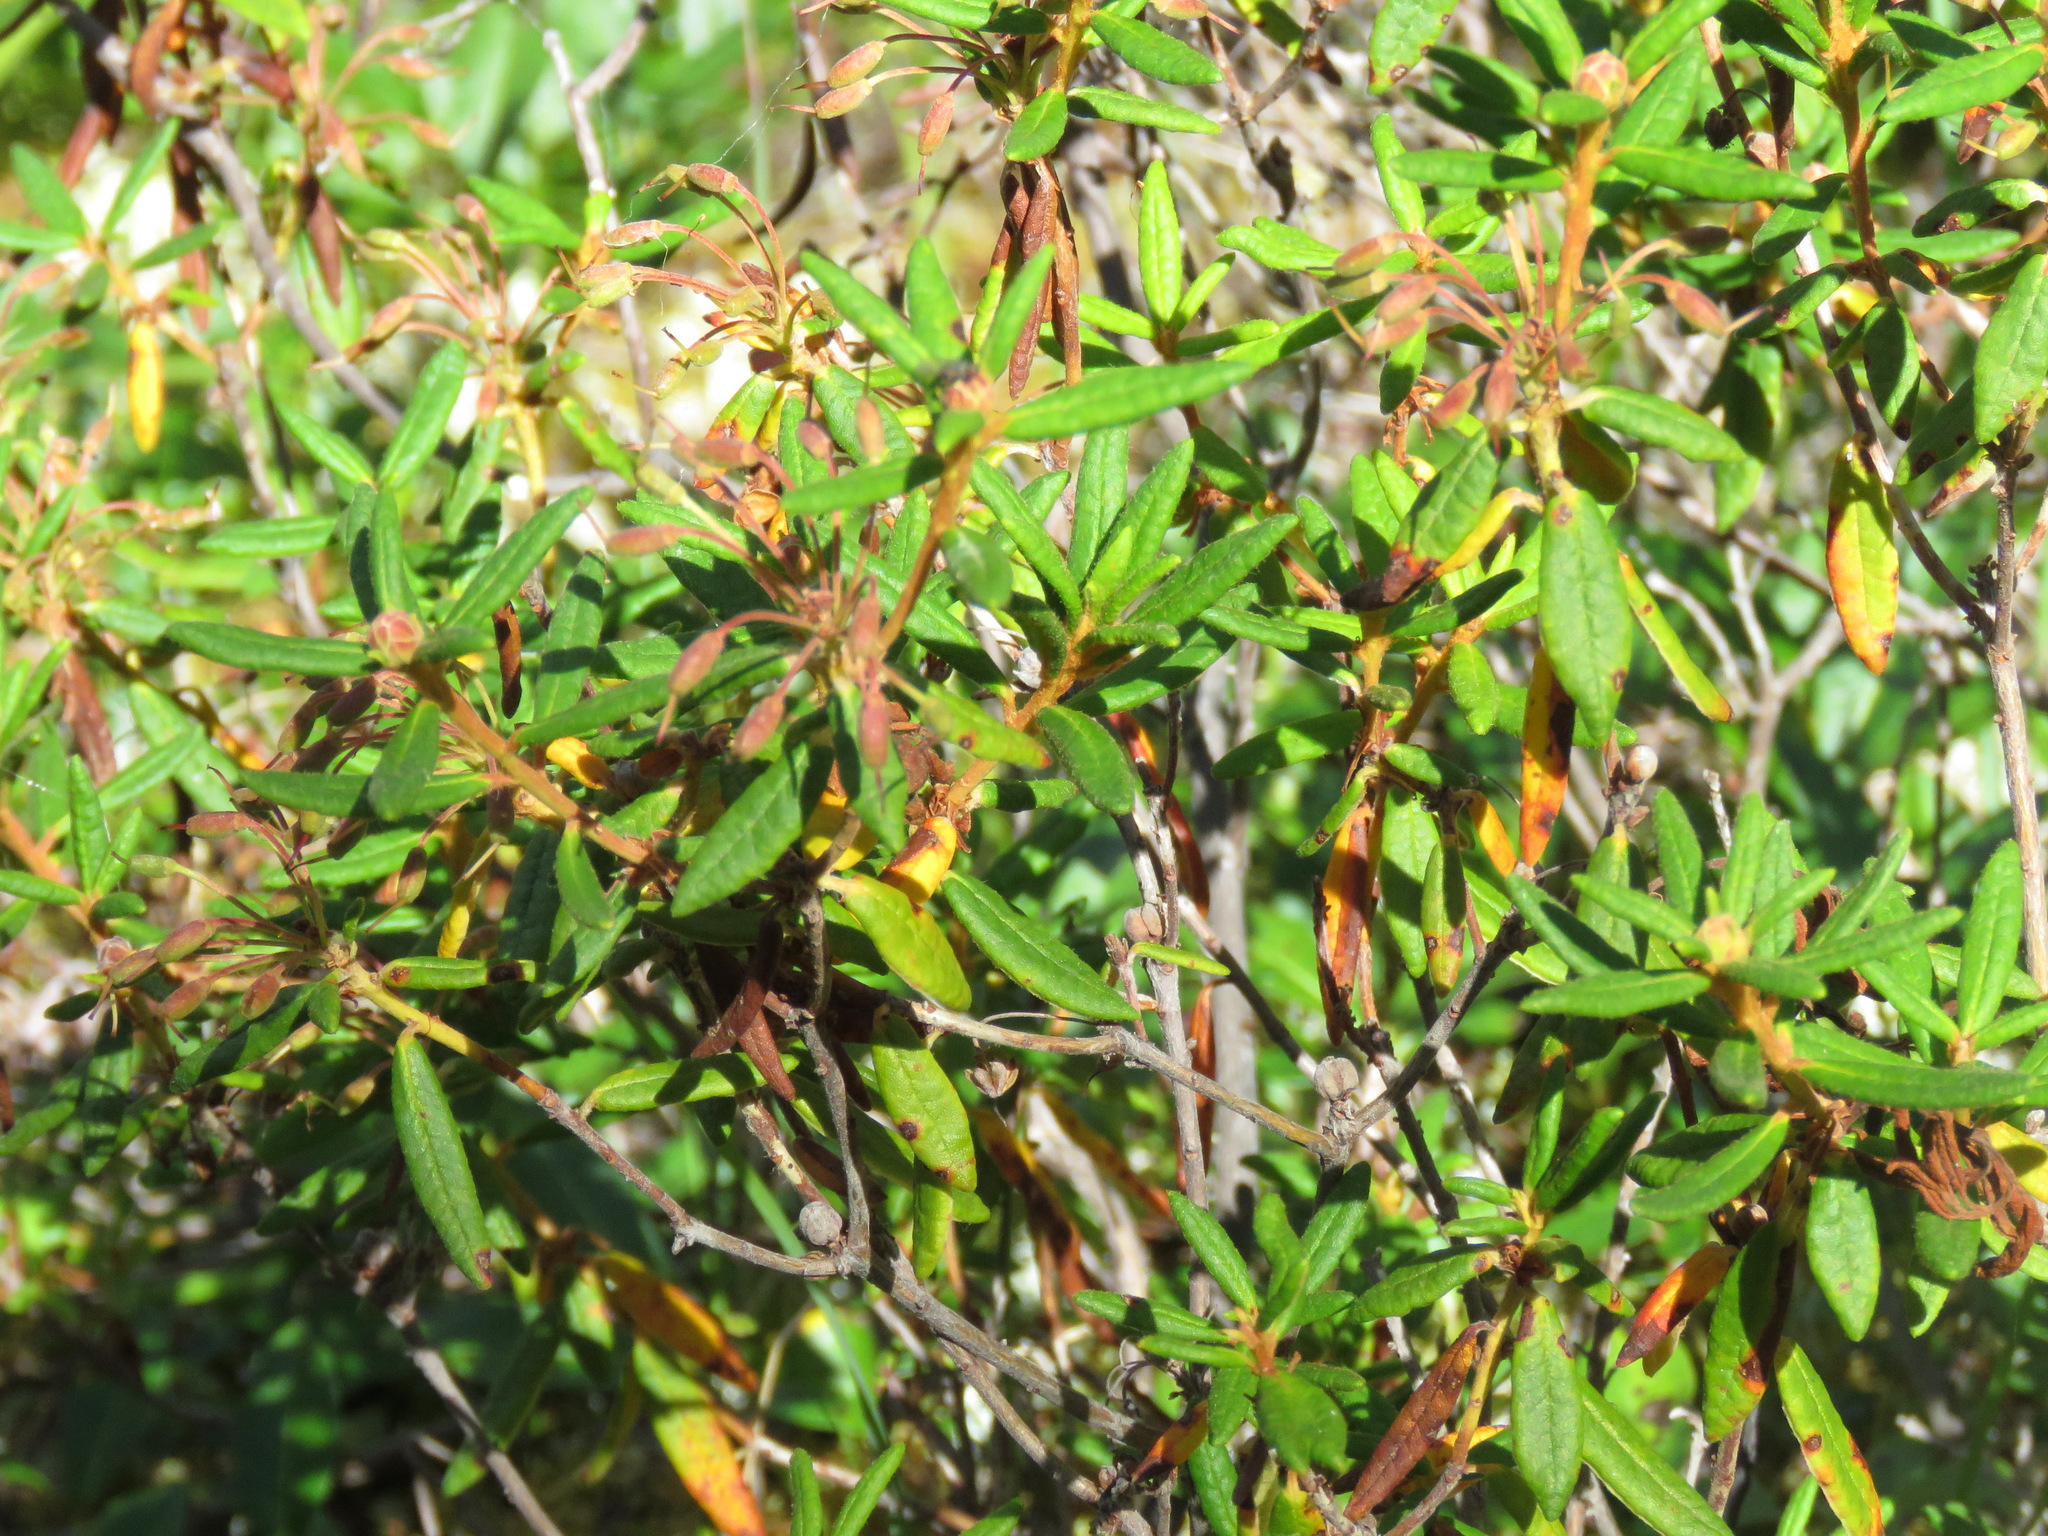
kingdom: Plantae
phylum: Tracheophyta
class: Magnoliopsida
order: Ericales
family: Ericaceae
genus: Rhododendron
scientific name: Rhododendron groenlandicum
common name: Bog labrador tea
